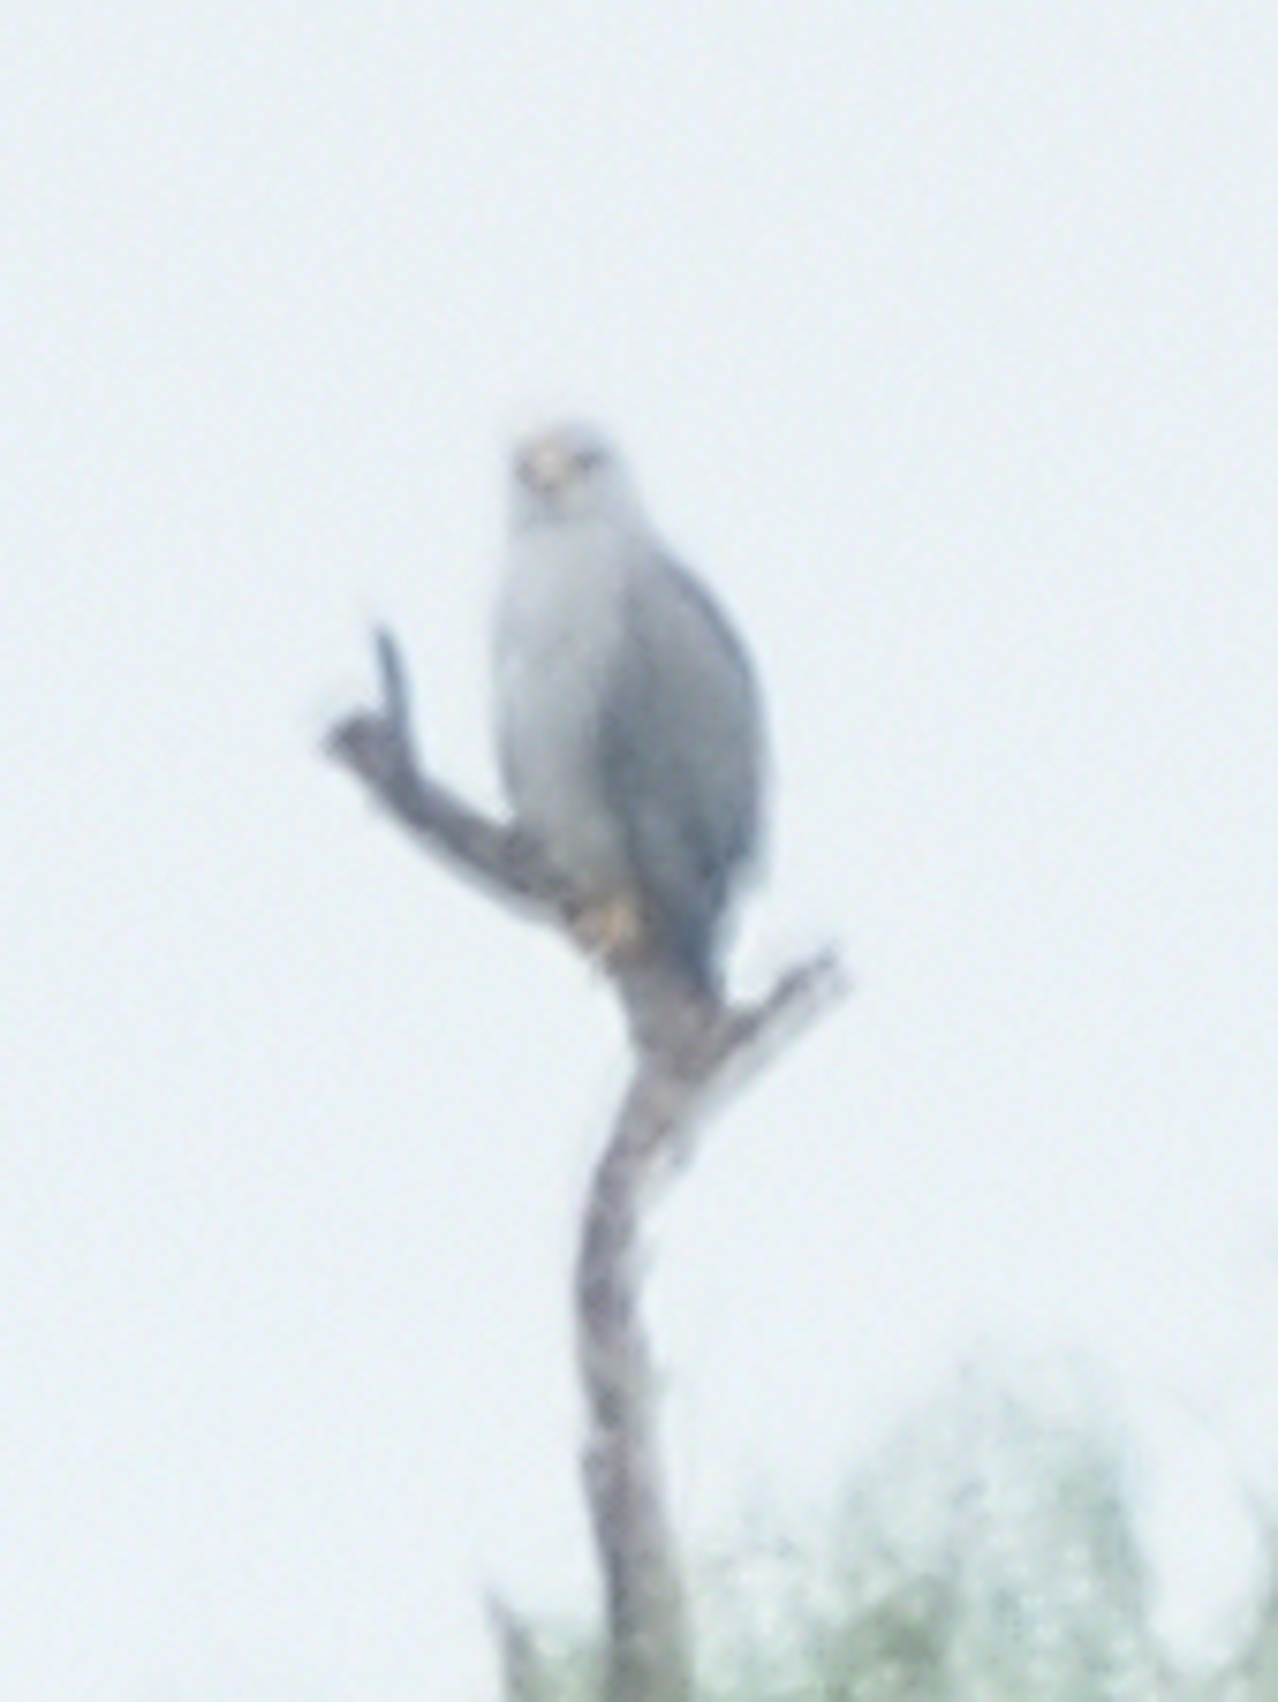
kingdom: Animalia
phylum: Chordata
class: Aves
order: Accipitriformes
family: Accipitridae
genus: Buteo
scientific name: Buteo nitidus
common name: Grey-lined hawk
